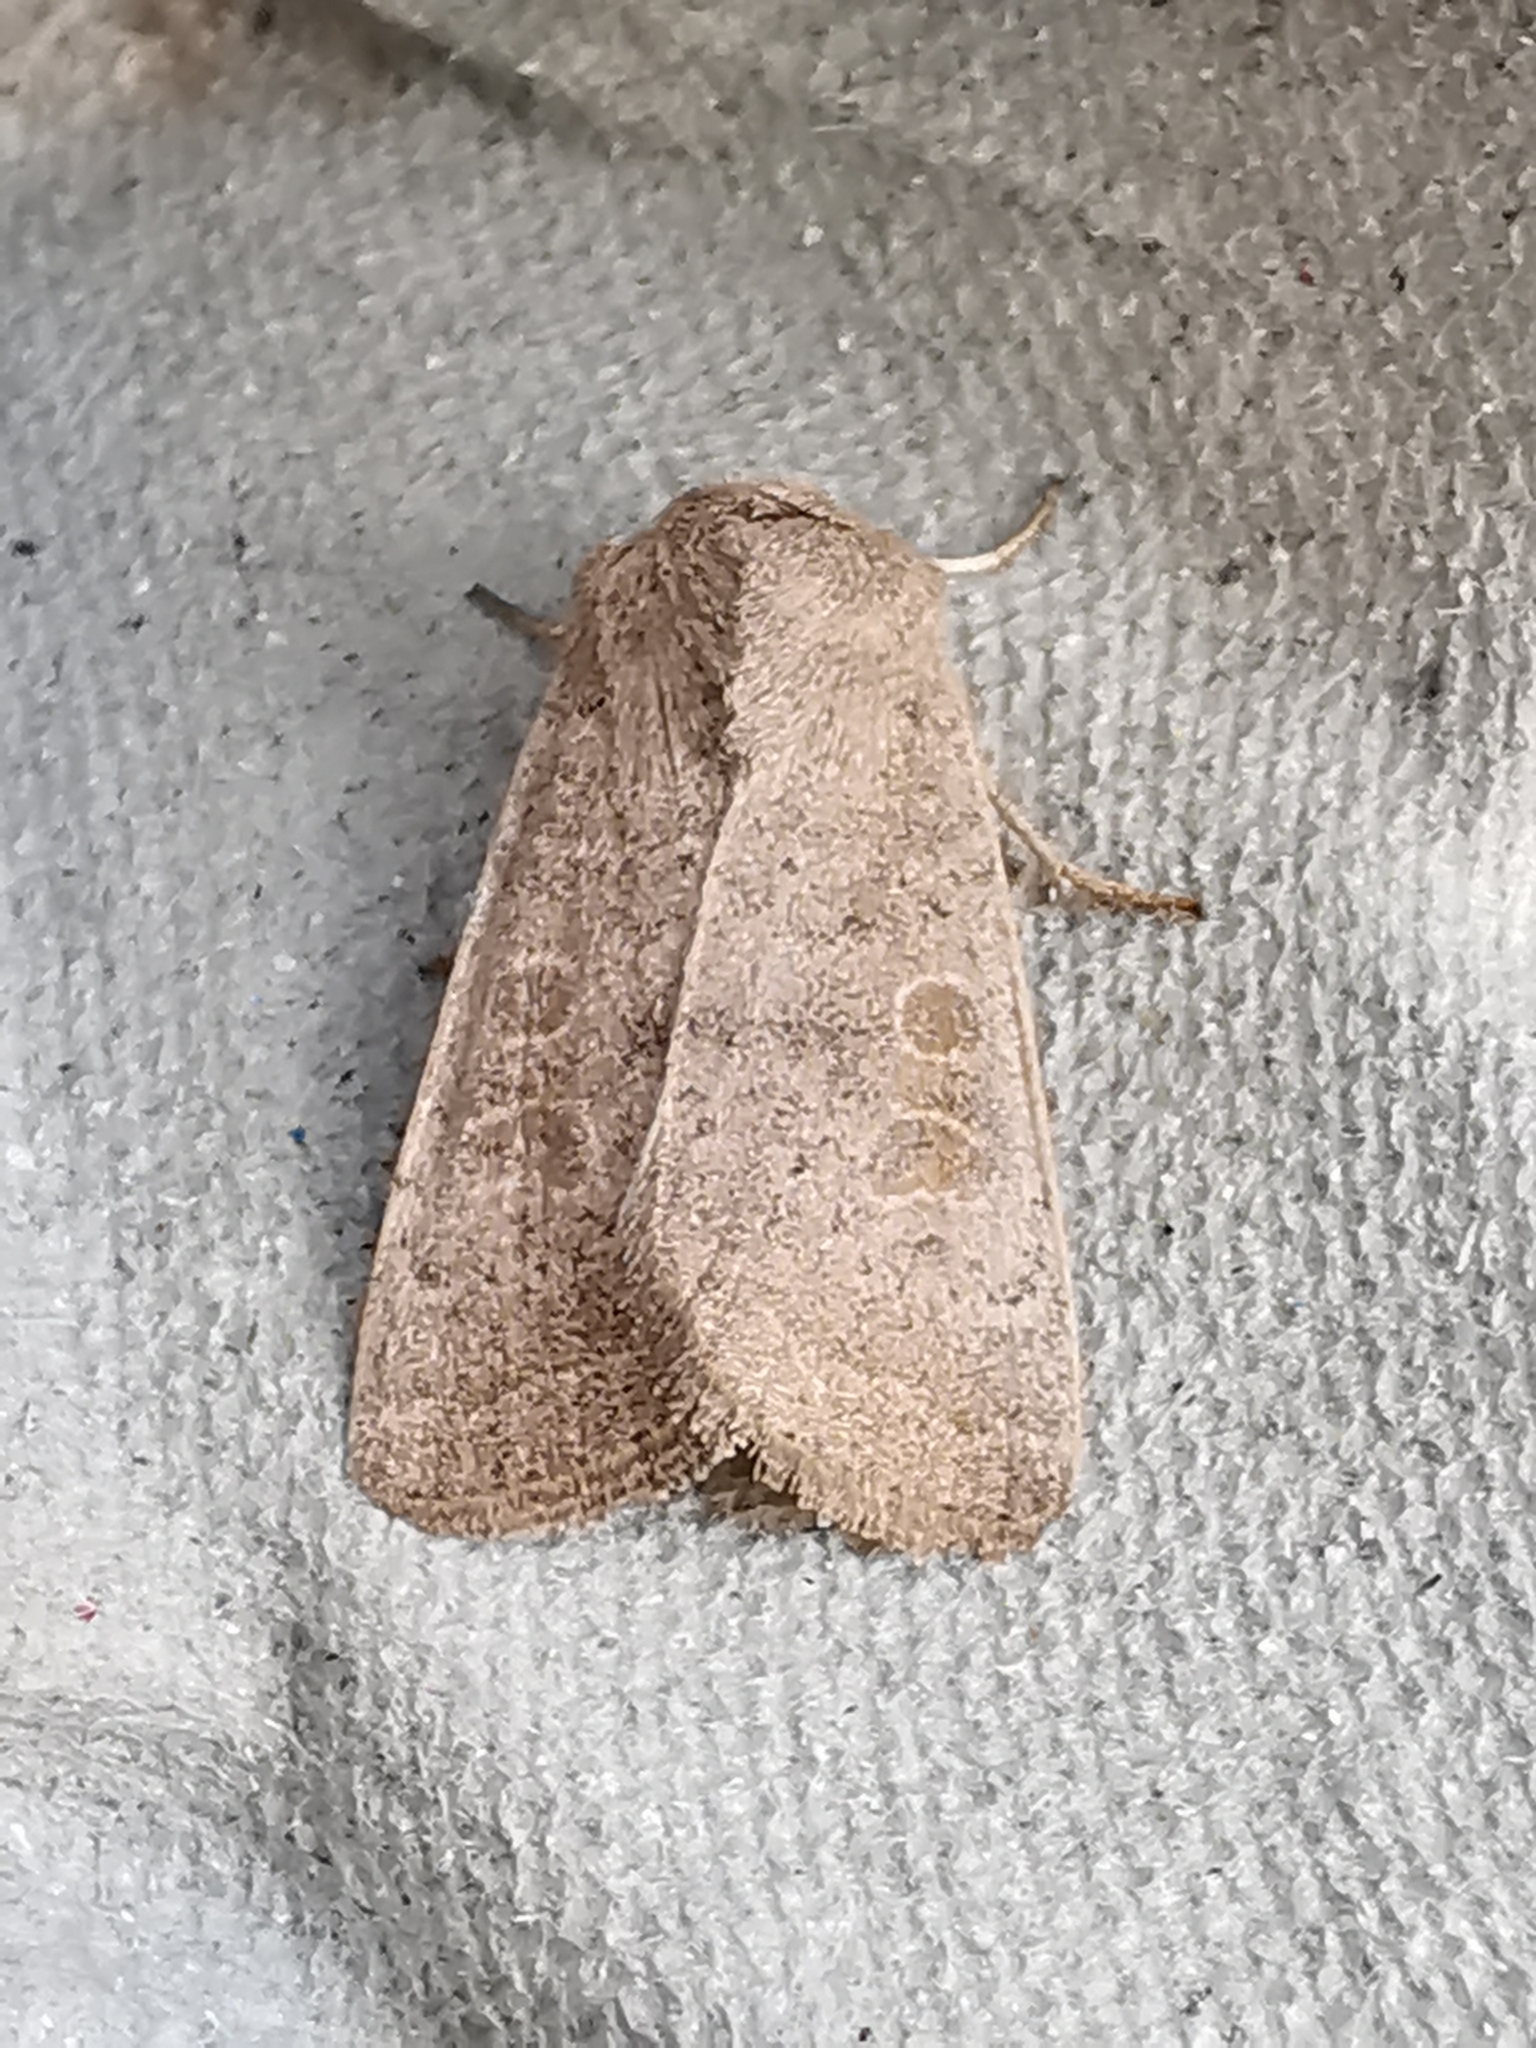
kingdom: Animalia
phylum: Arthropoda
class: Insecta
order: Lepidoptera
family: Noctuidae
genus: Hoplodrina
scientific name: Hoplodrina ambigua
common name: Vine's rustic
